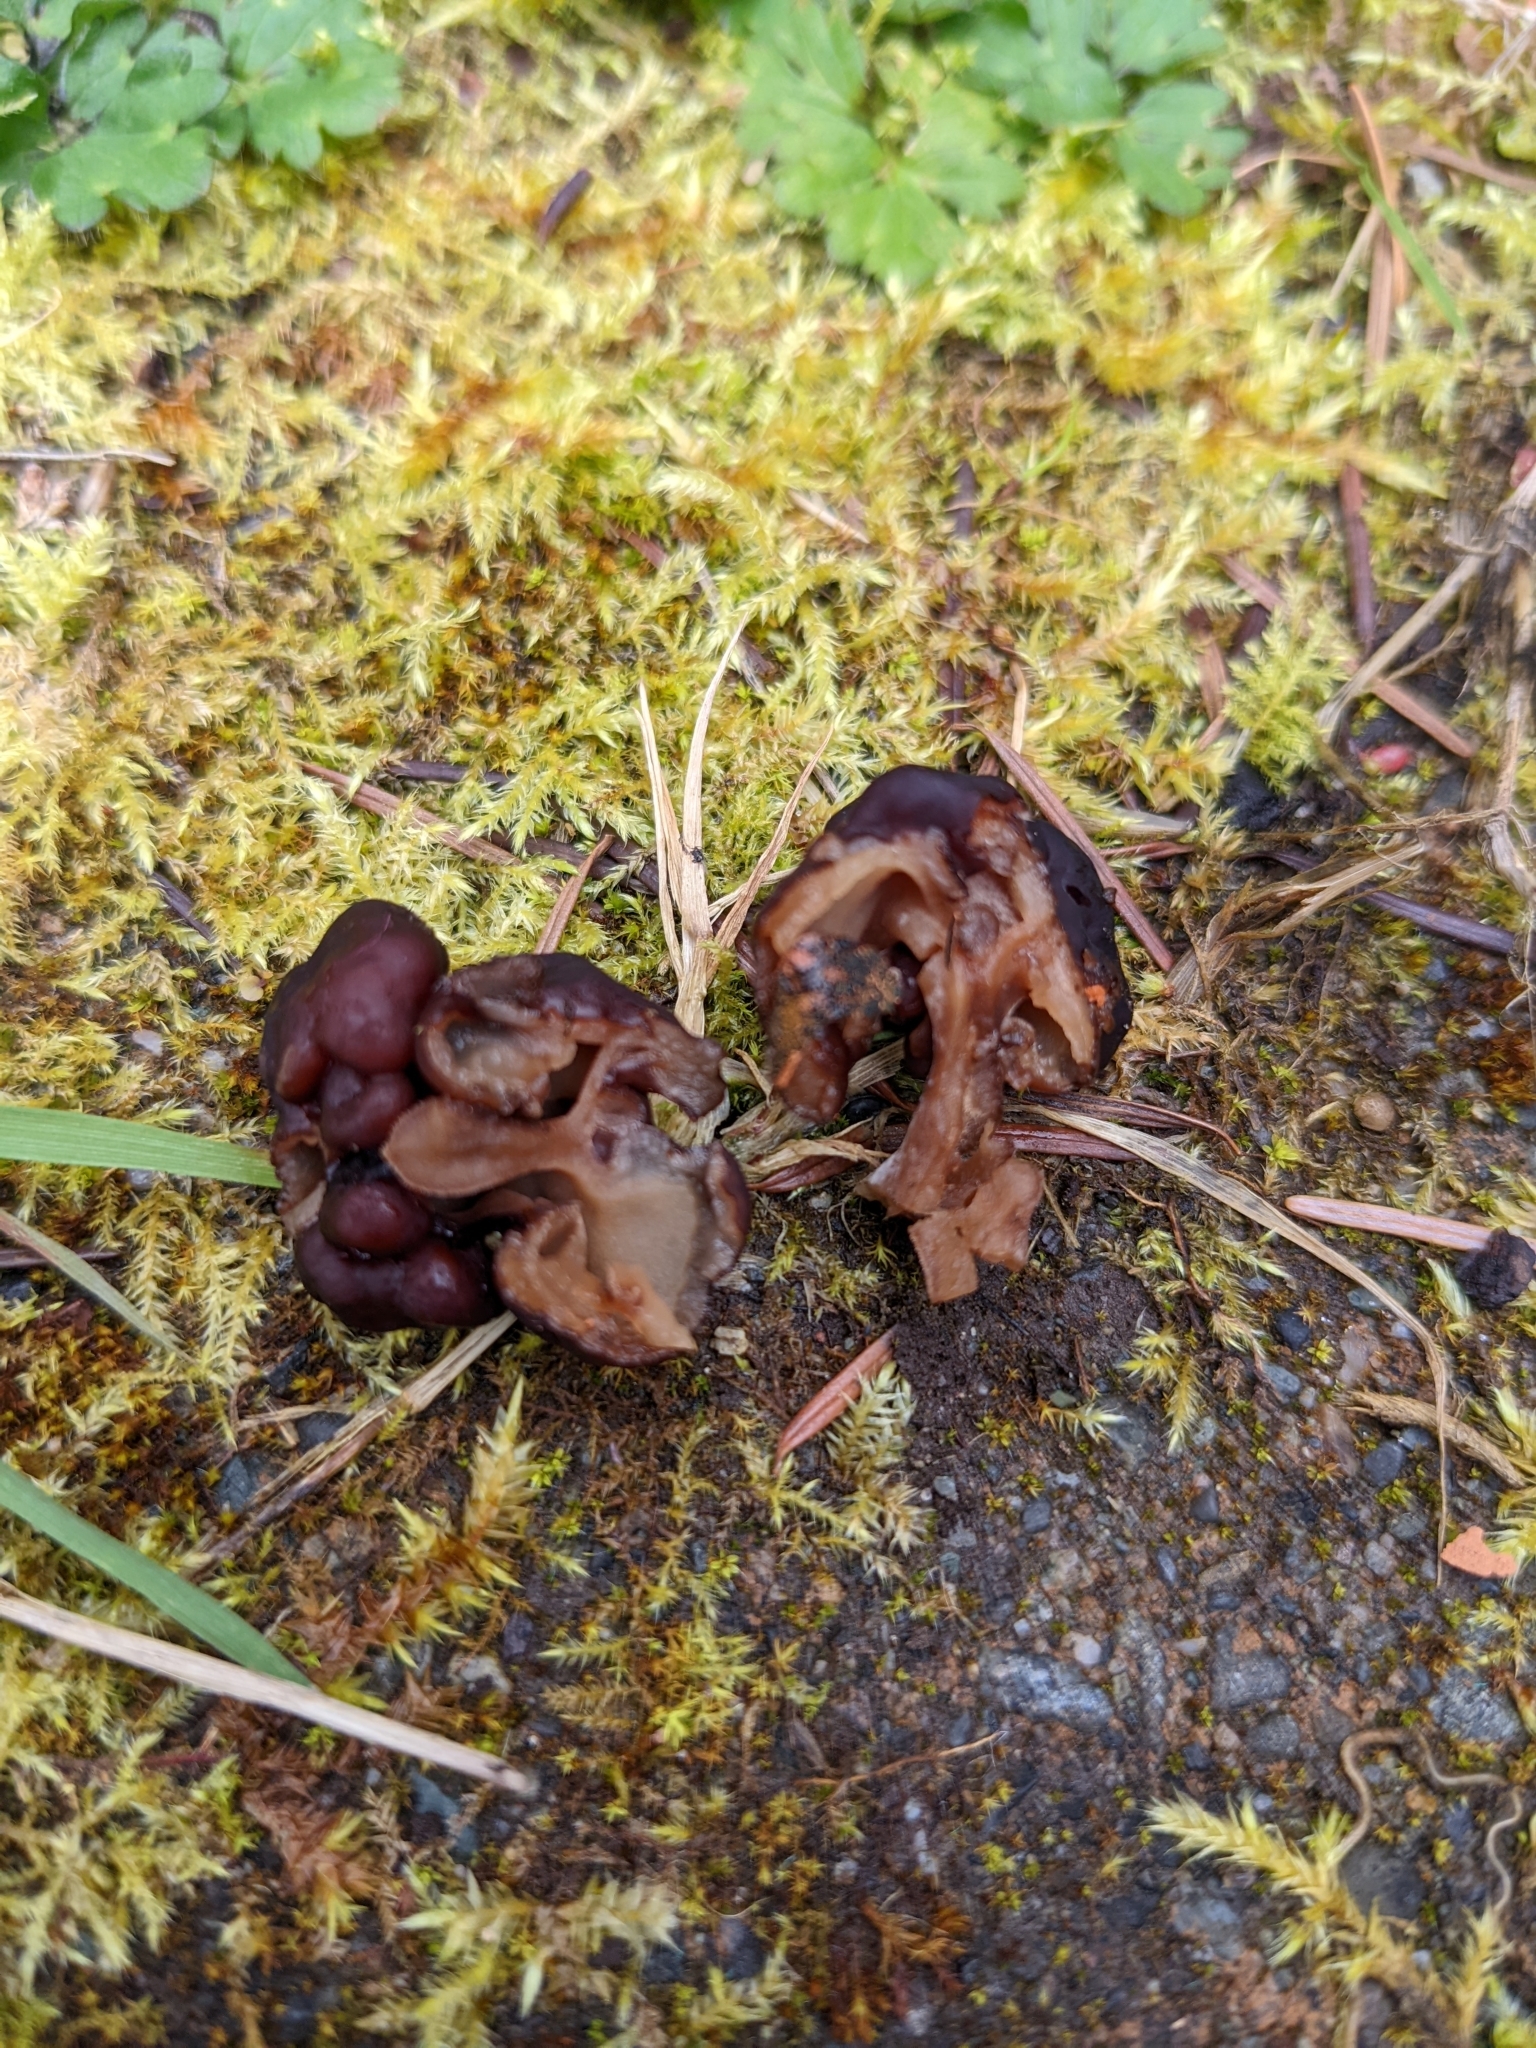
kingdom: Fungi
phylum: Ascomycota
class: Pezizomycetes
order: Pezizales
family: Discinaceae
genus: Gyromitra
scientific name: Gyromitra esculenta
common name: False morel
